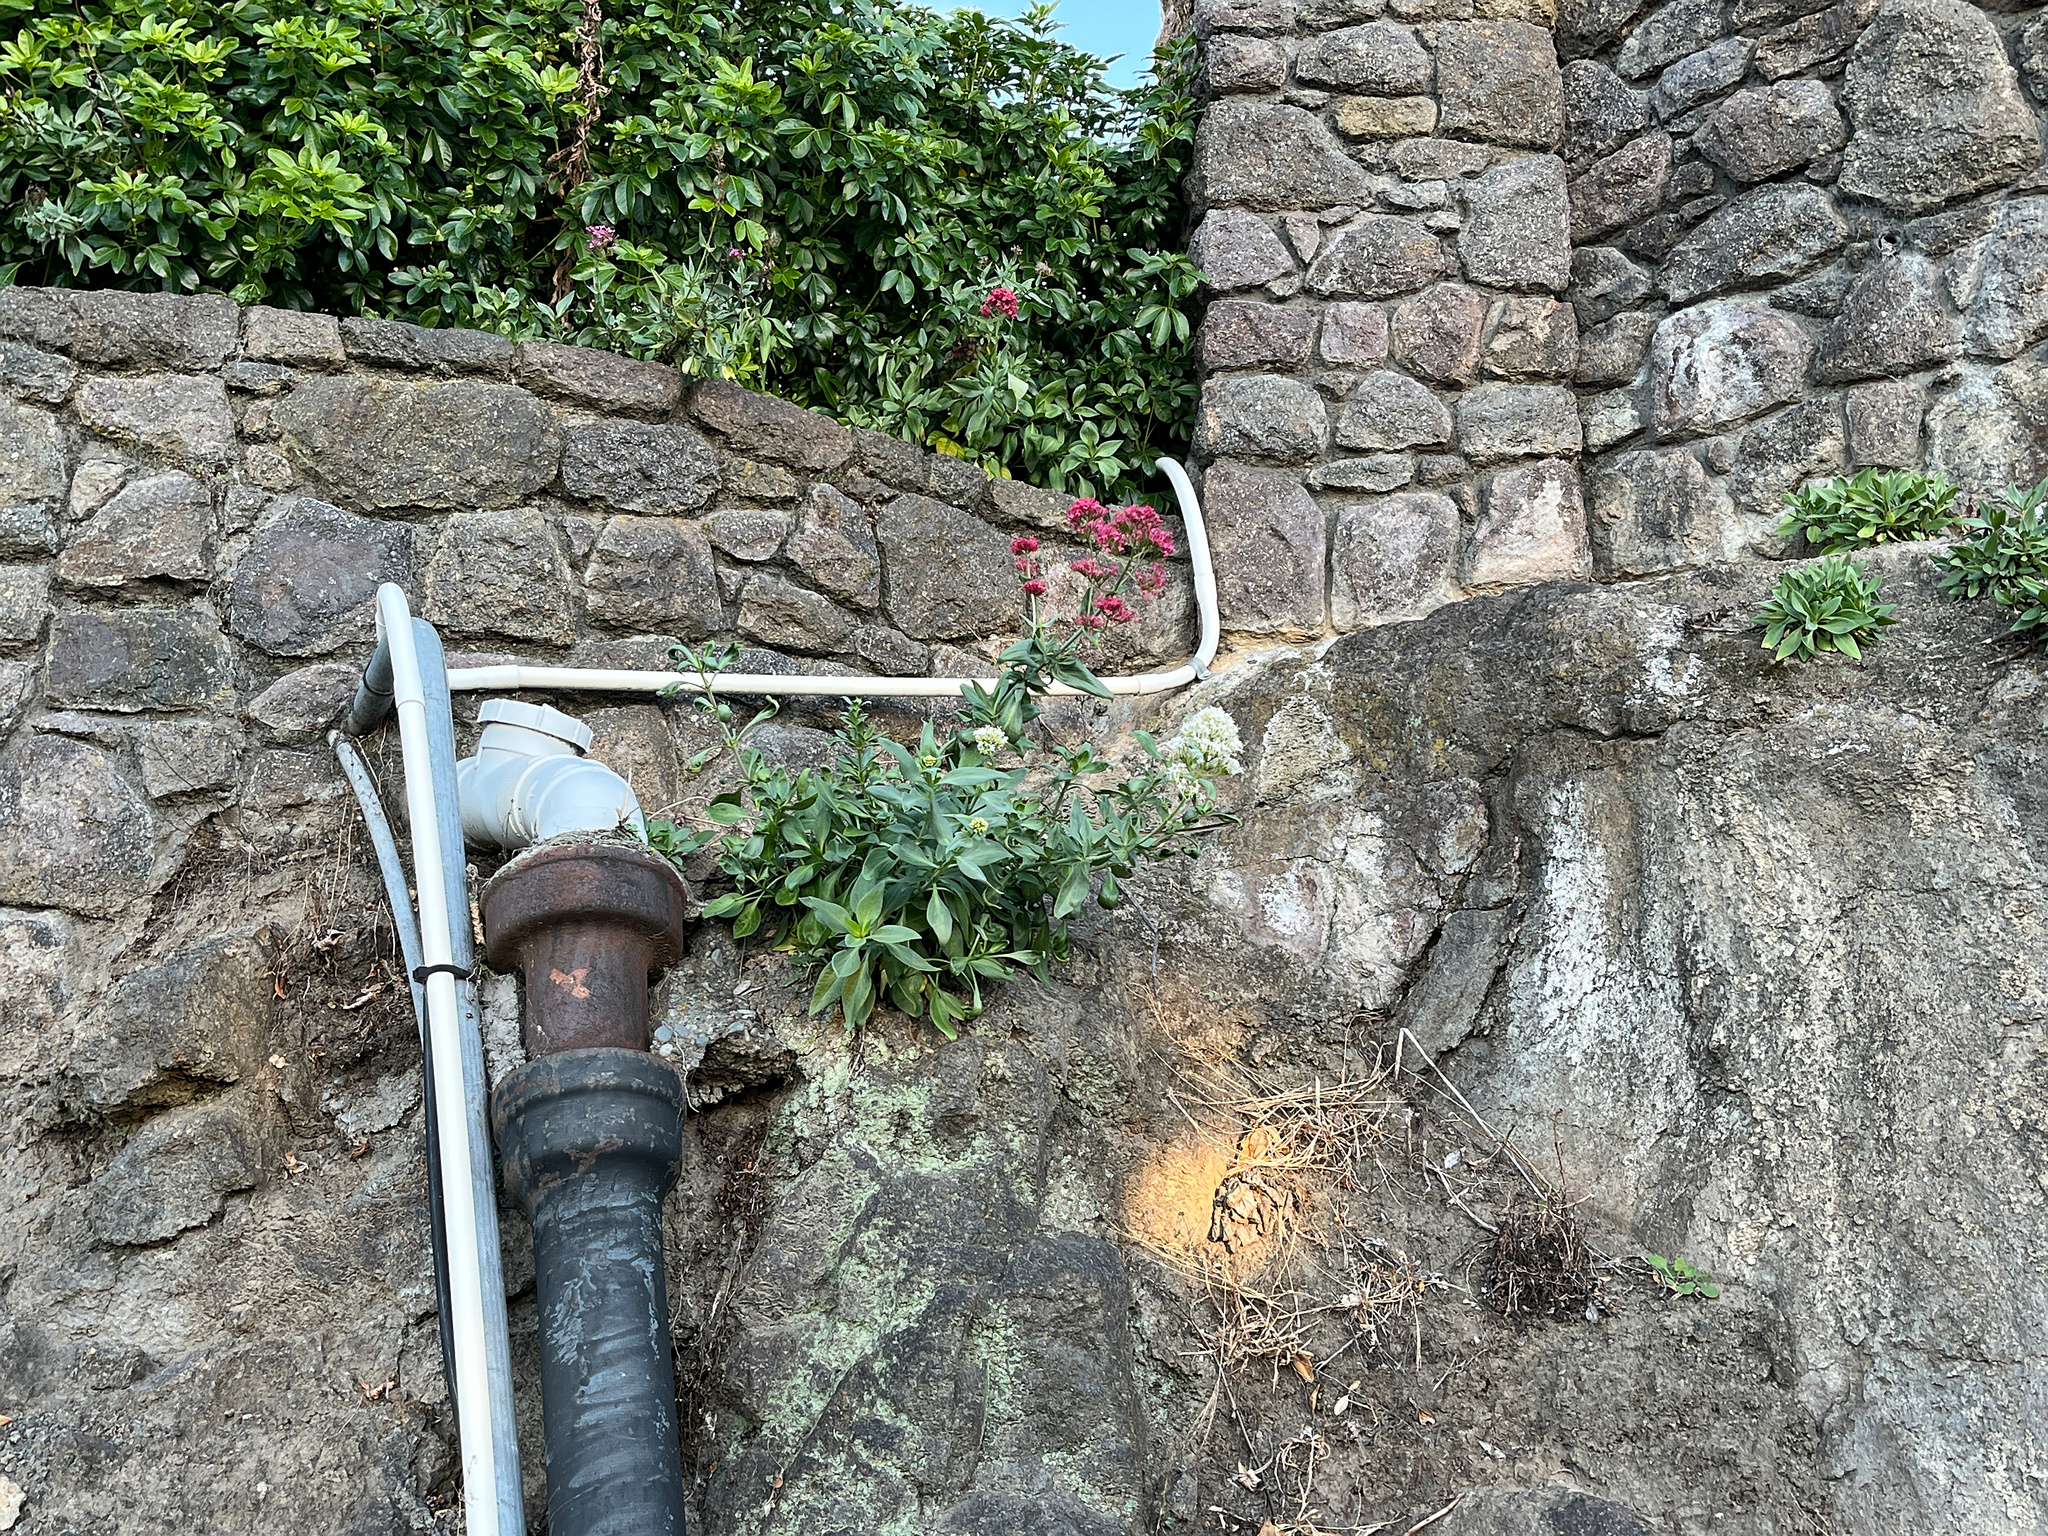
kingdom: Plantae
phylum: Tracheophyta
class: Magnoliopsida
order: Dipsacales
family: Caprifoliaceae
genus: Centranthus
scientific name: Centranthus ruber
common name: Red valerian
